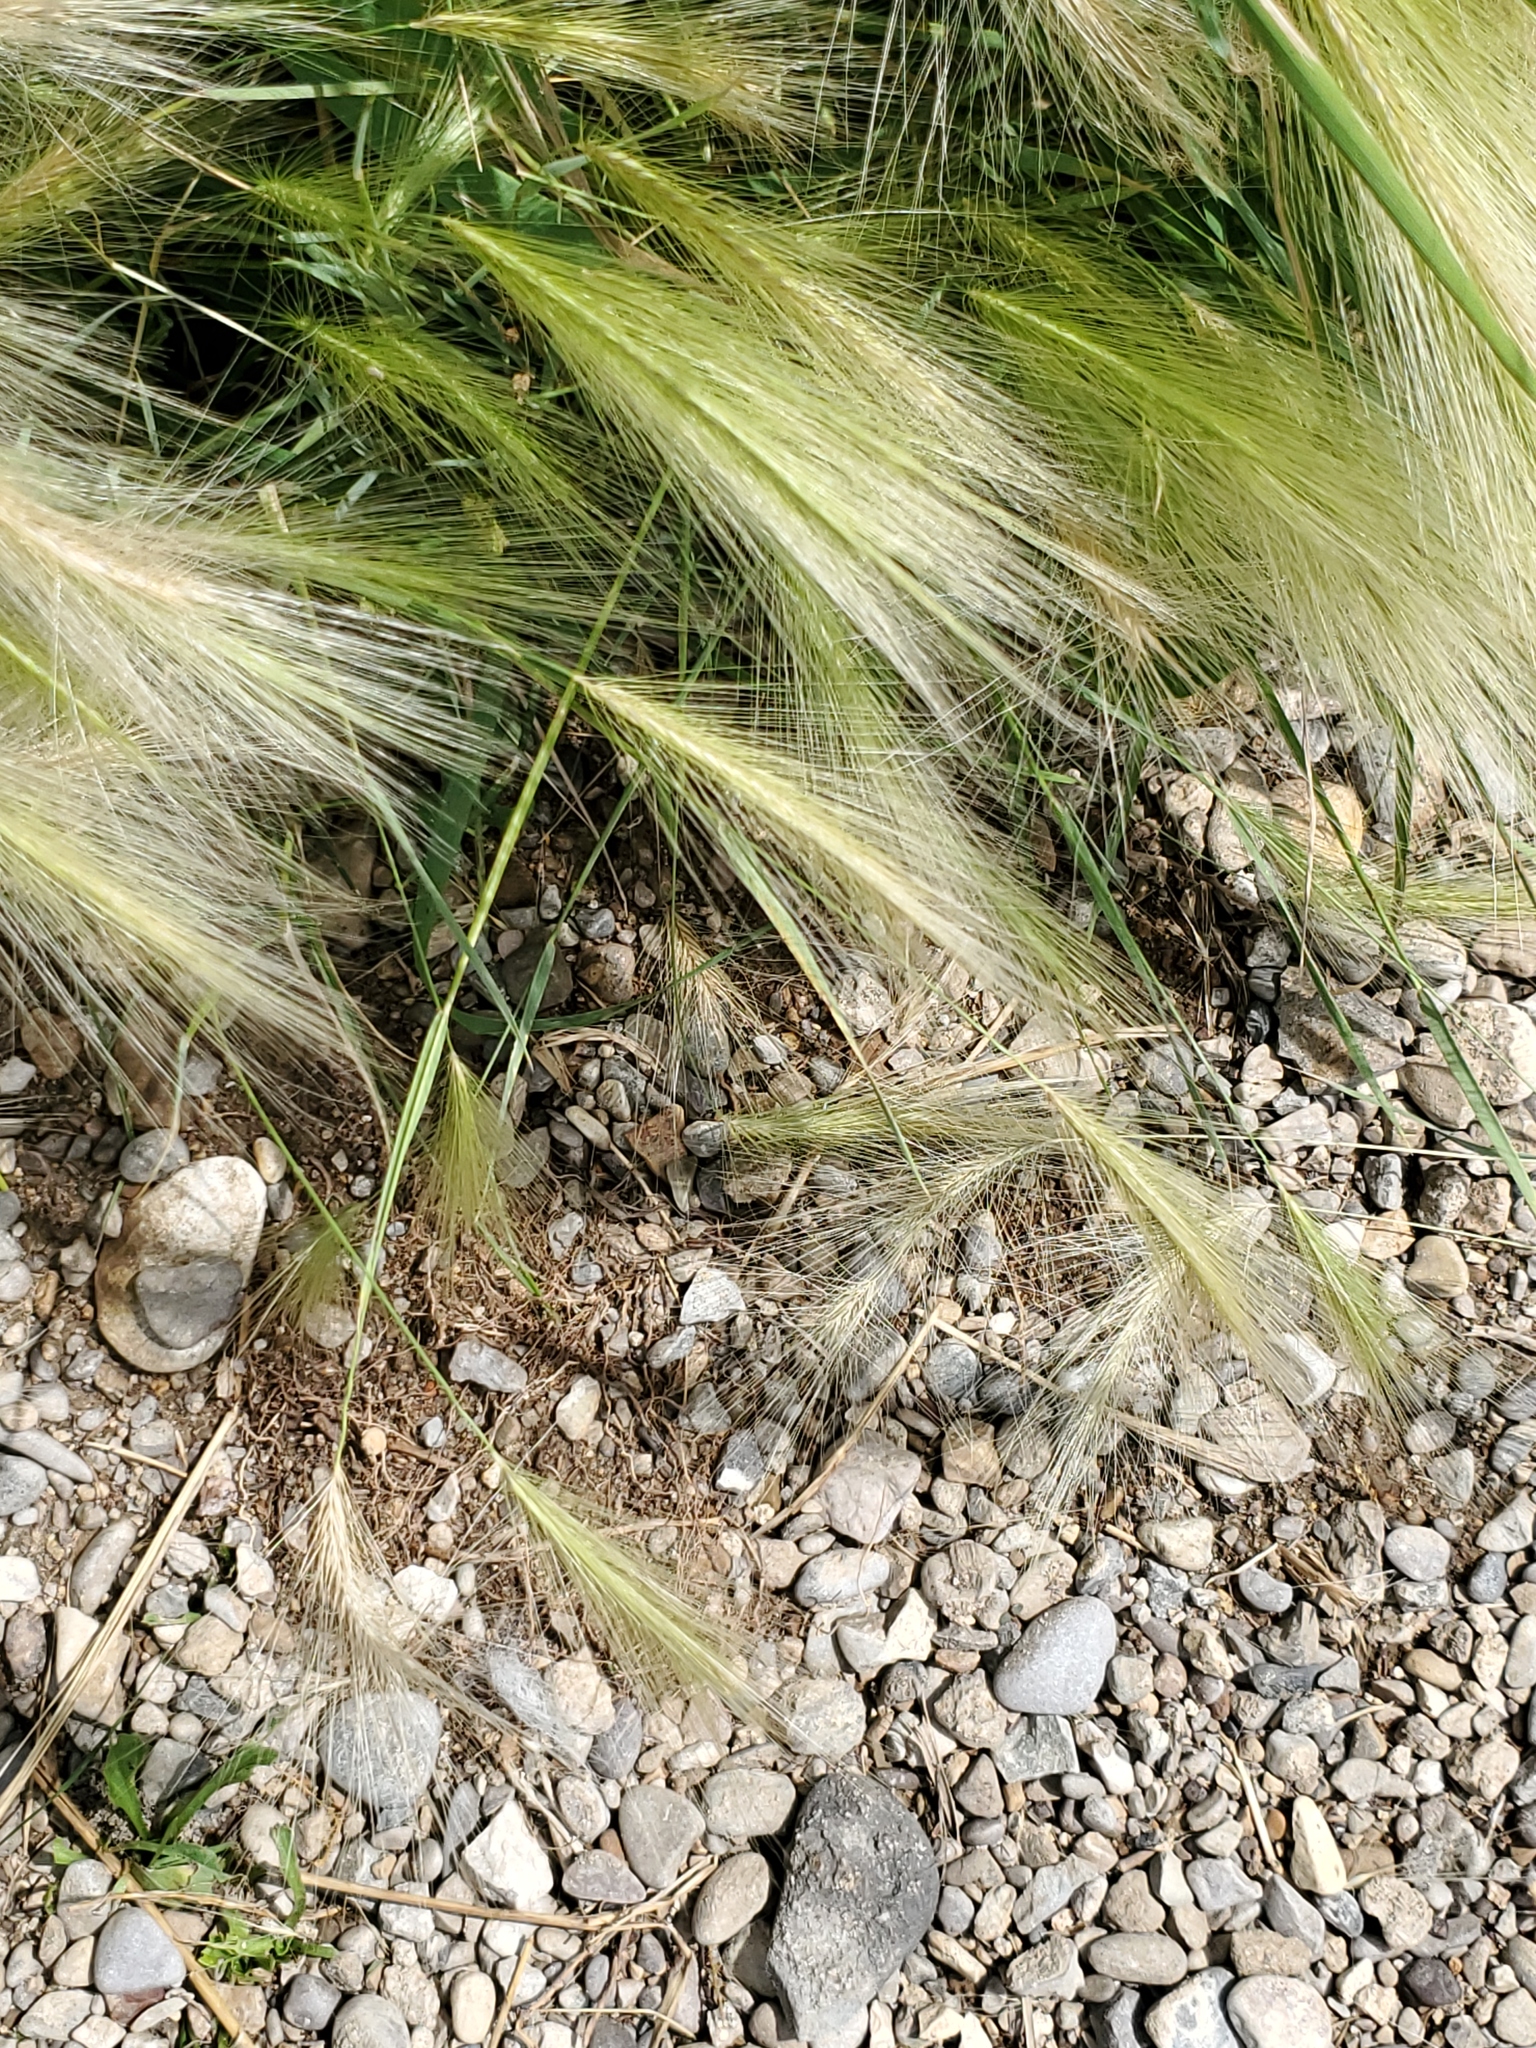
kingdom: Plantae
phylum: Tracheophyta
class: Liliopsida
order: Poales
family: Poaceae
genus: Hordeum
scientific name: Hordeum jubatum
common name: Foxtail barley
